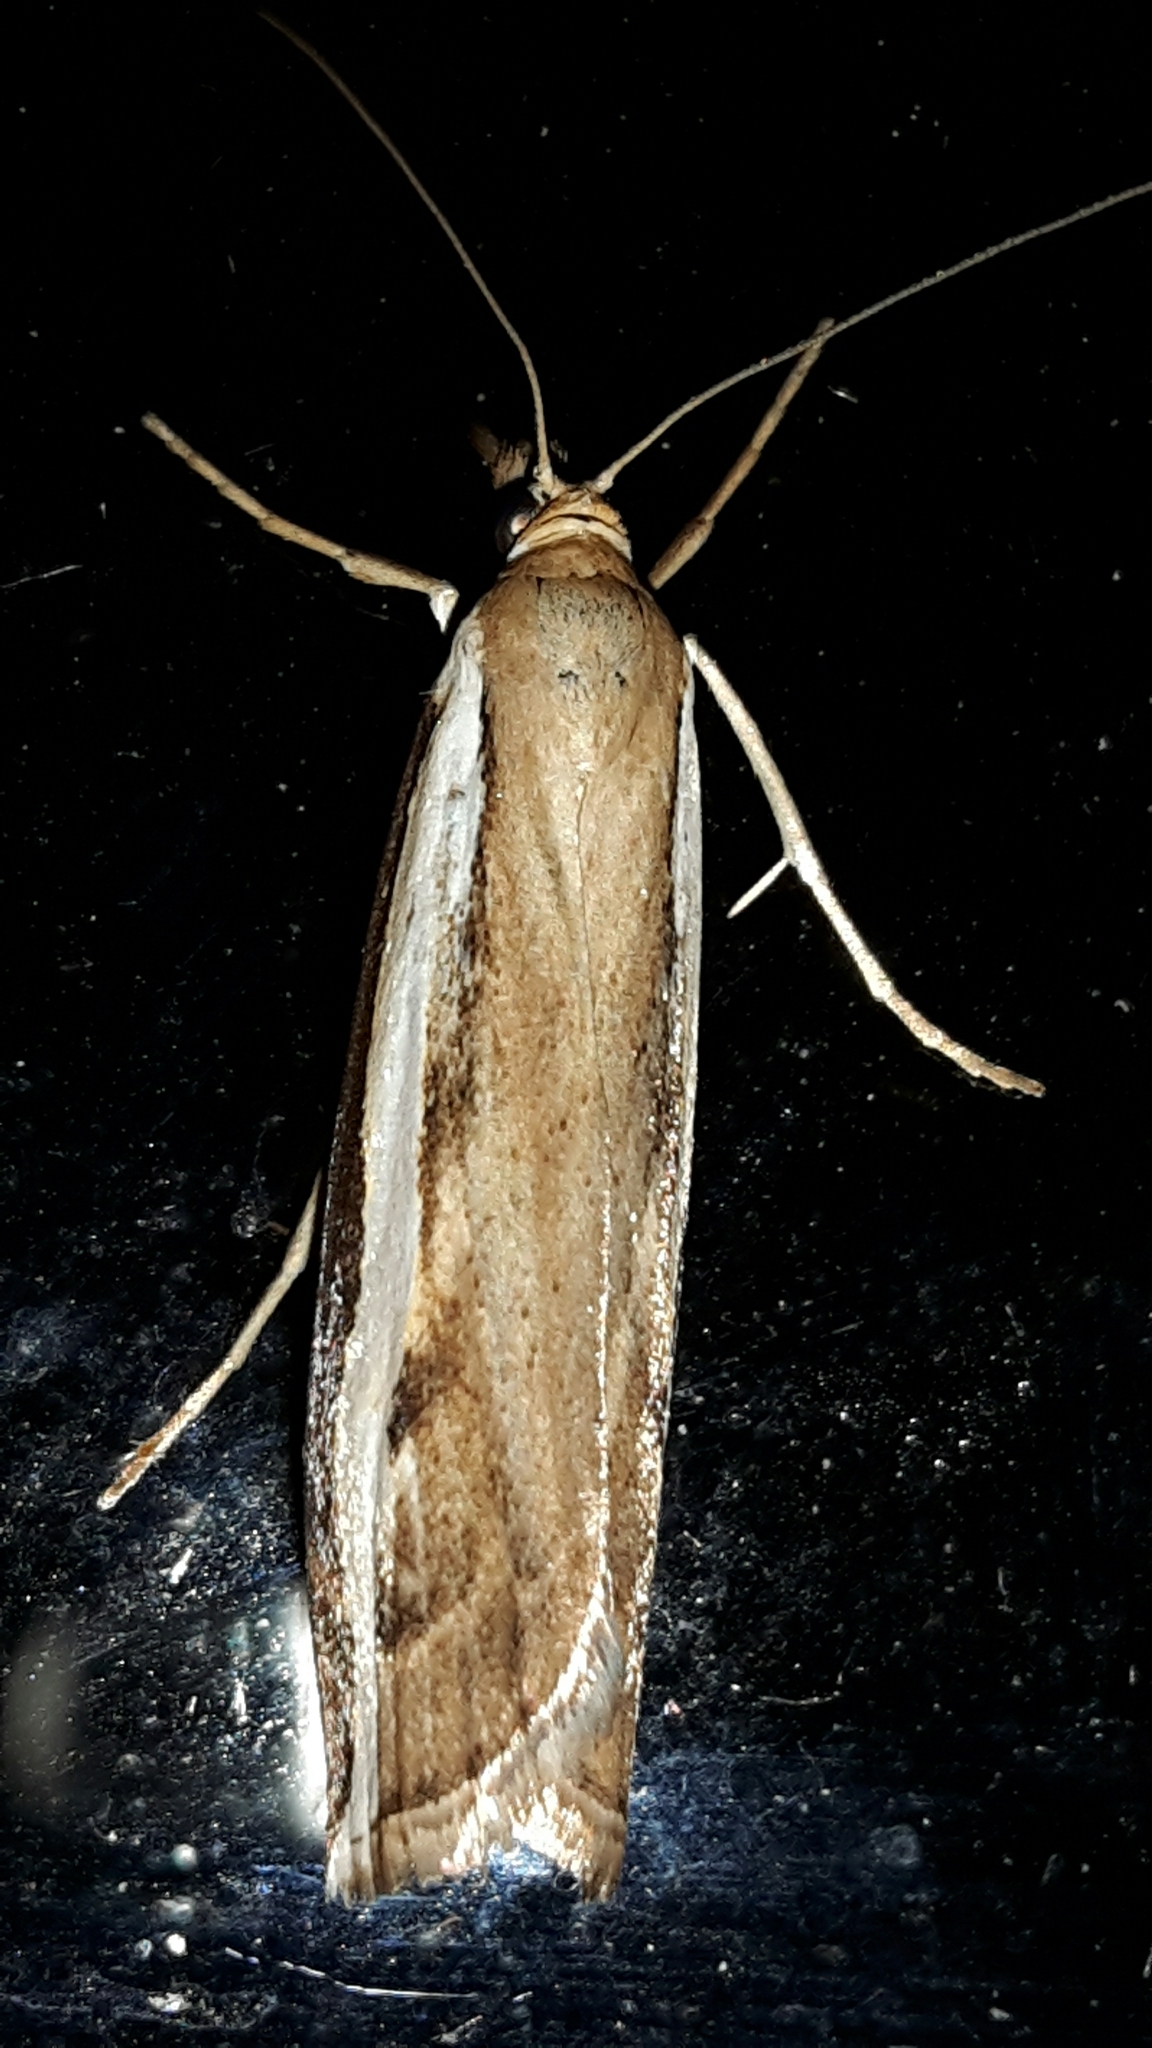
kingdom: Animalia
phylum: Arthropoda
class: Insecta
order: Lepidoptera
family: Crambidae
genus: Orocrambus
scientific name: Orocrambus flexuosellus
